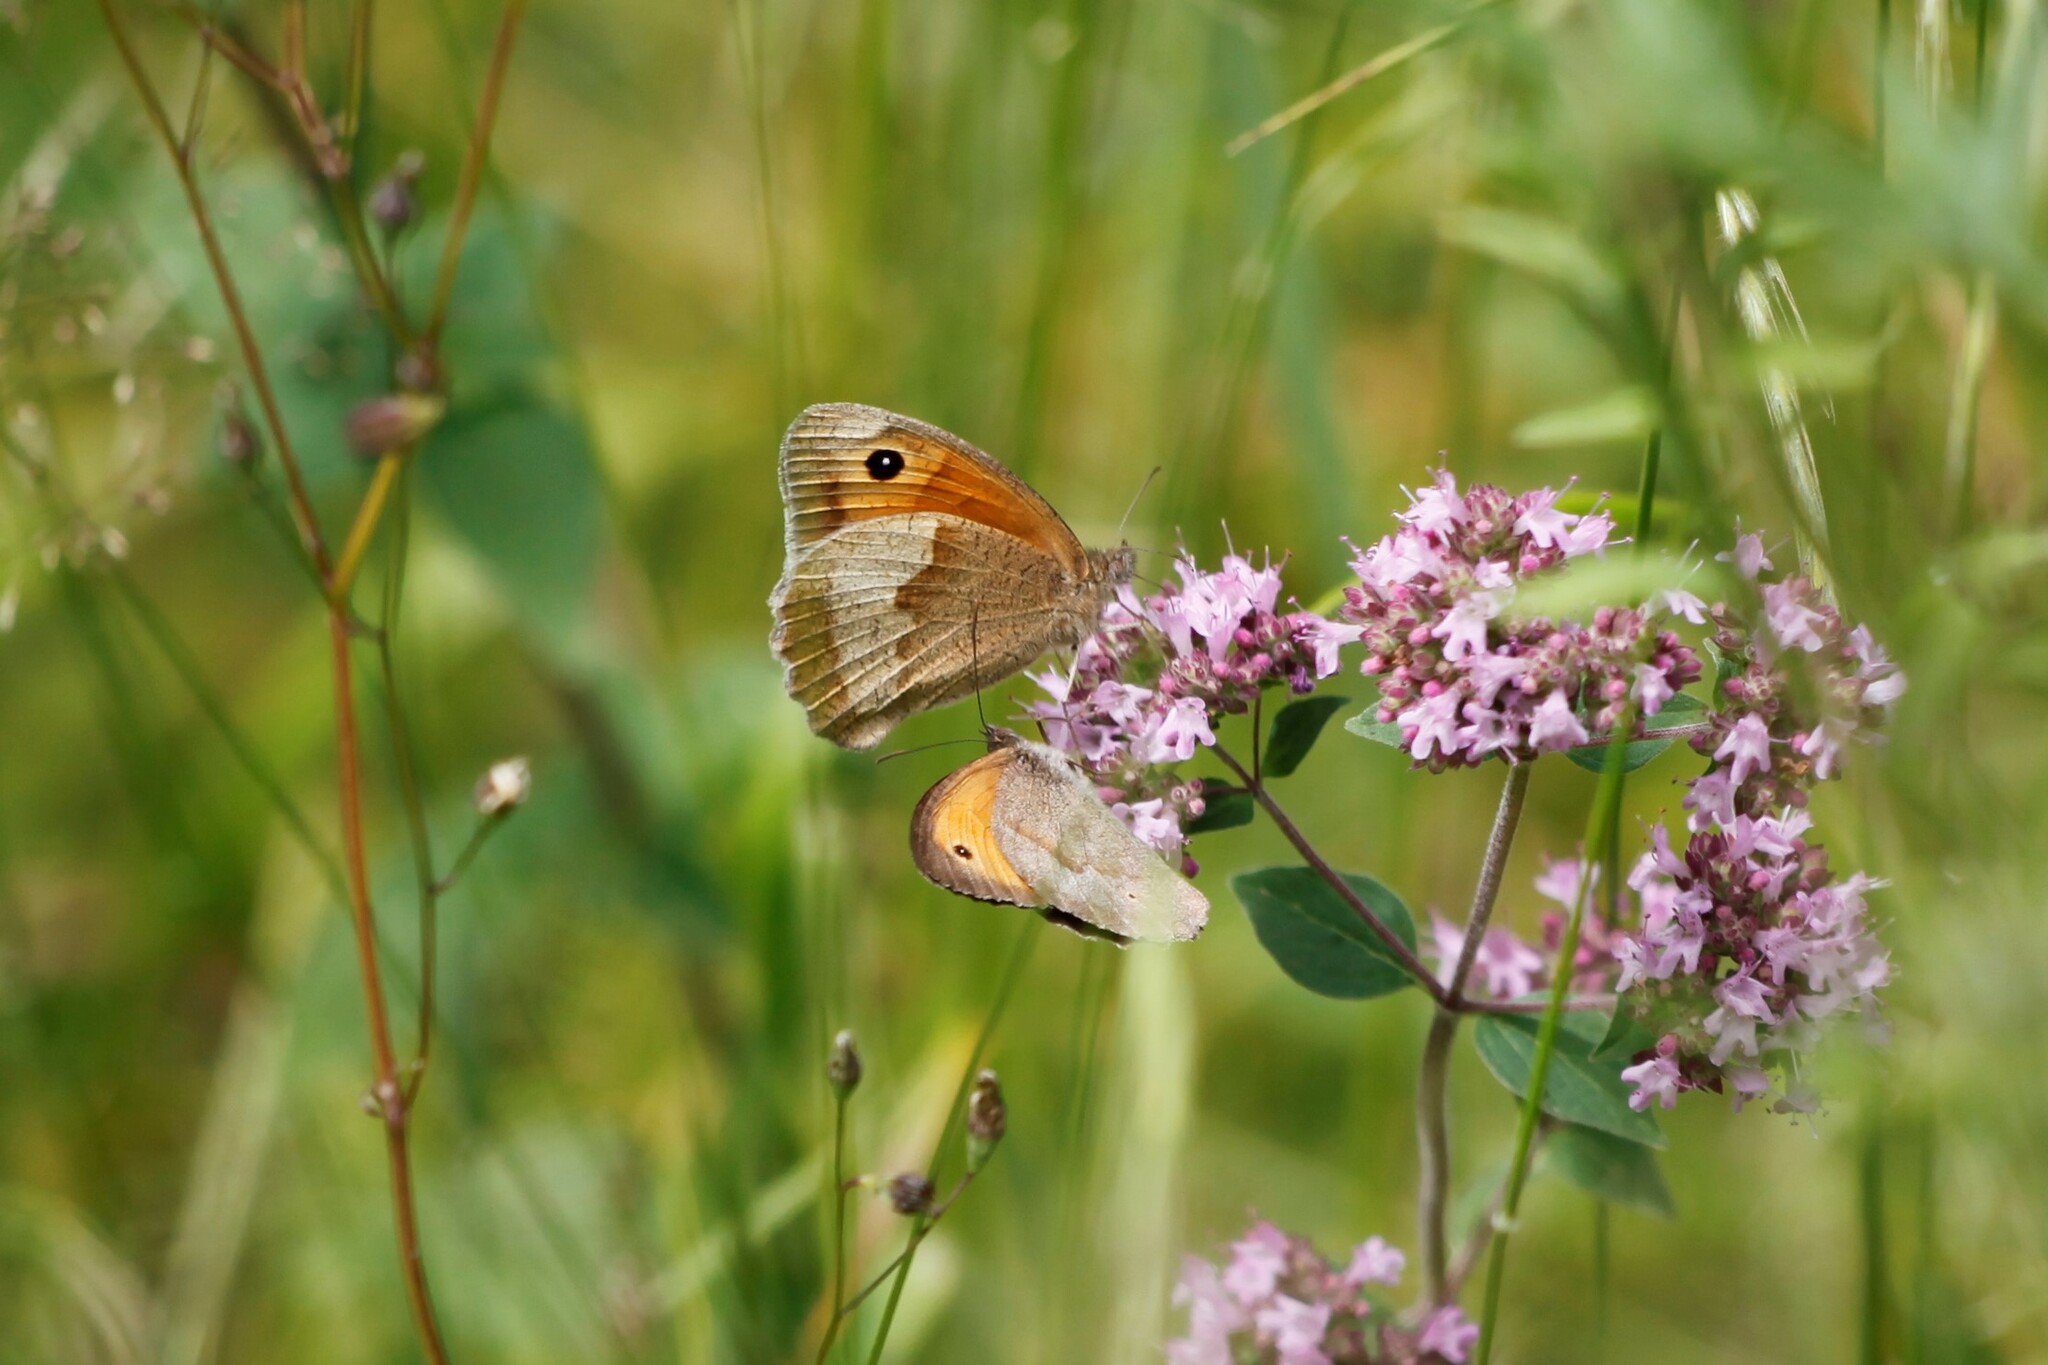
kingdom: Animalia
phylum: Arthropoda
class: Insecta
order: Lepidoptera
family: Nymphalidae
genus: Maniola
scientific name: Maniola jurtina
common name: Meadow brown
